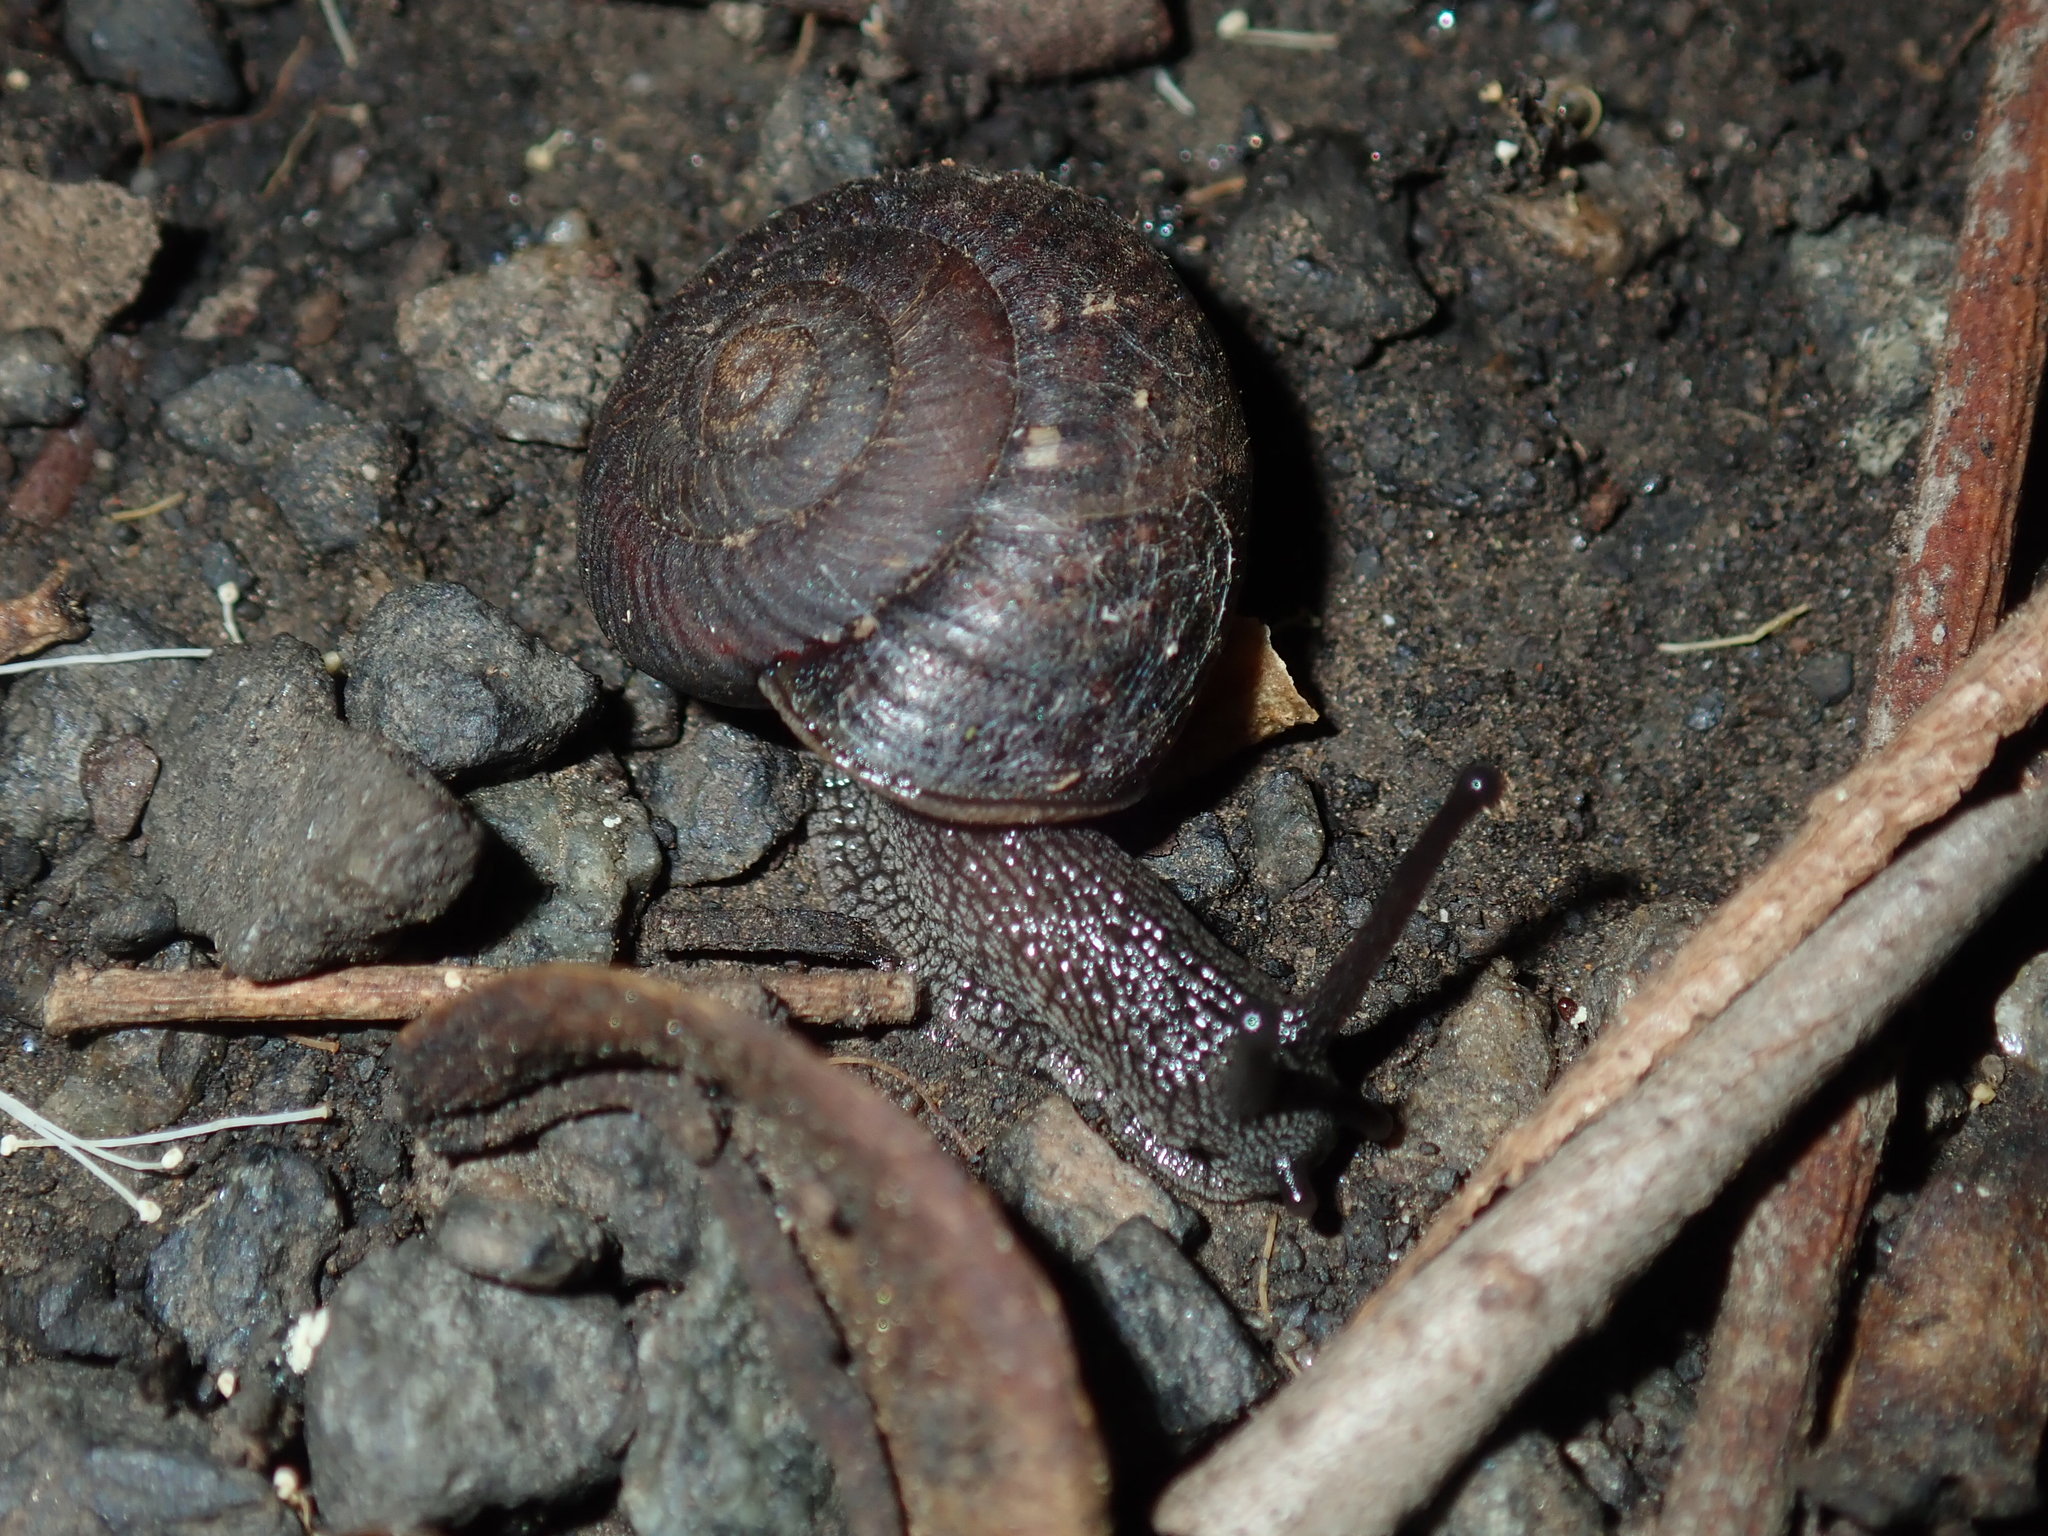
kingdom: Animalia
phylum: Mollusca
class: Gastropoda
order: Stylommatophora
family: Camaenidae
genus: Sauroconcha
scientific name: Sauroconcha sheai
